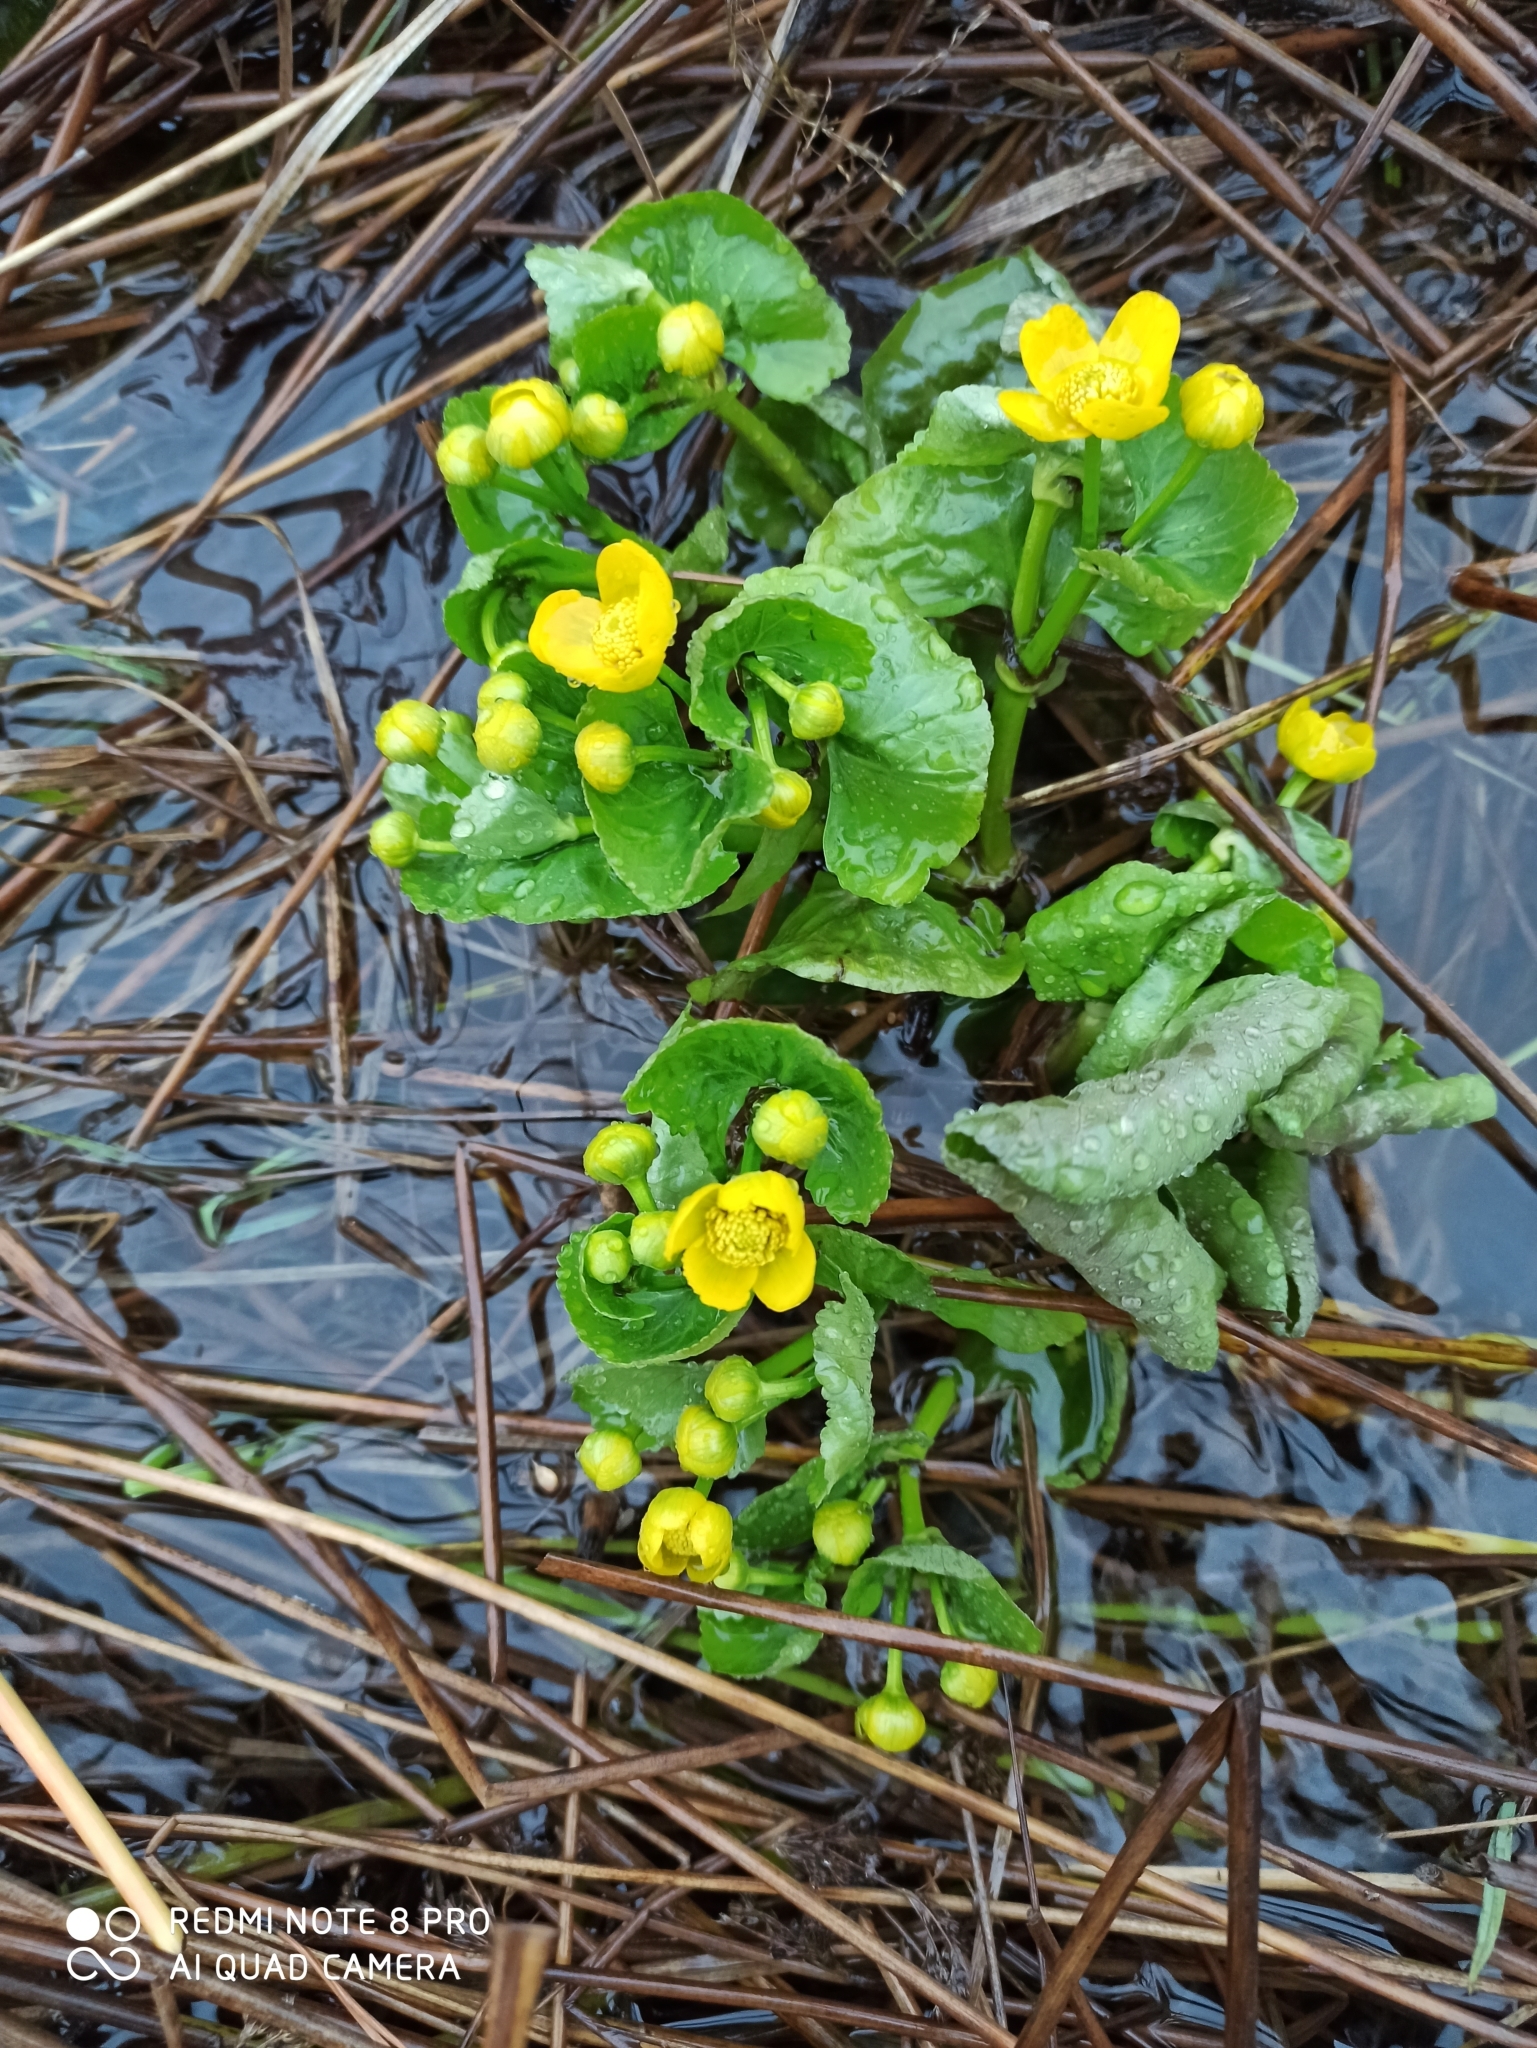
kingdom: Plantae
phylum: Tracheophyta
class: Magnoliopsida
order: Ranunculales
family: Ranunculaceae
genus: Caltha
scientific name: Caltha palustris
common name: Marsh marigold
